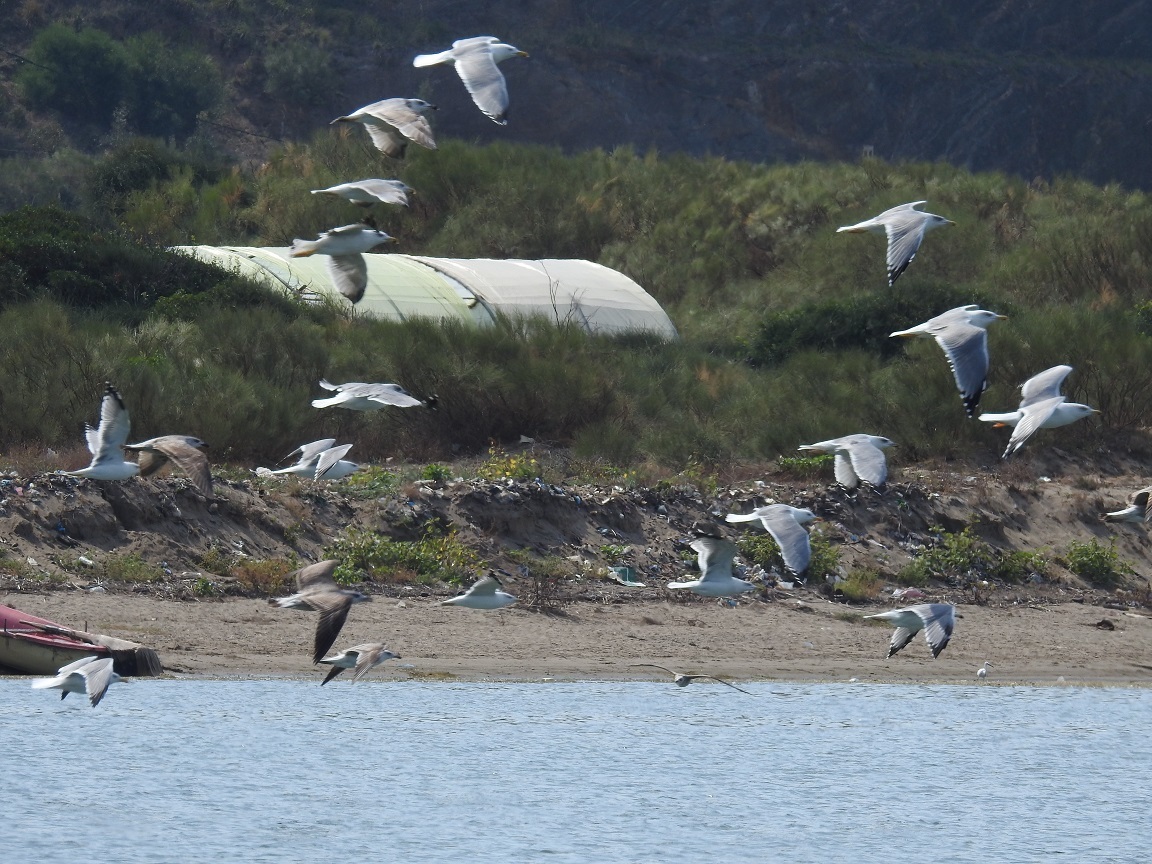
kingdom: Animalia
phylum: Chordata
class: Aves
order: Charadriiformes
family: Laridae
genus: Larus
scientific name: Larus michahellis
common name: Yellow-legged gull
